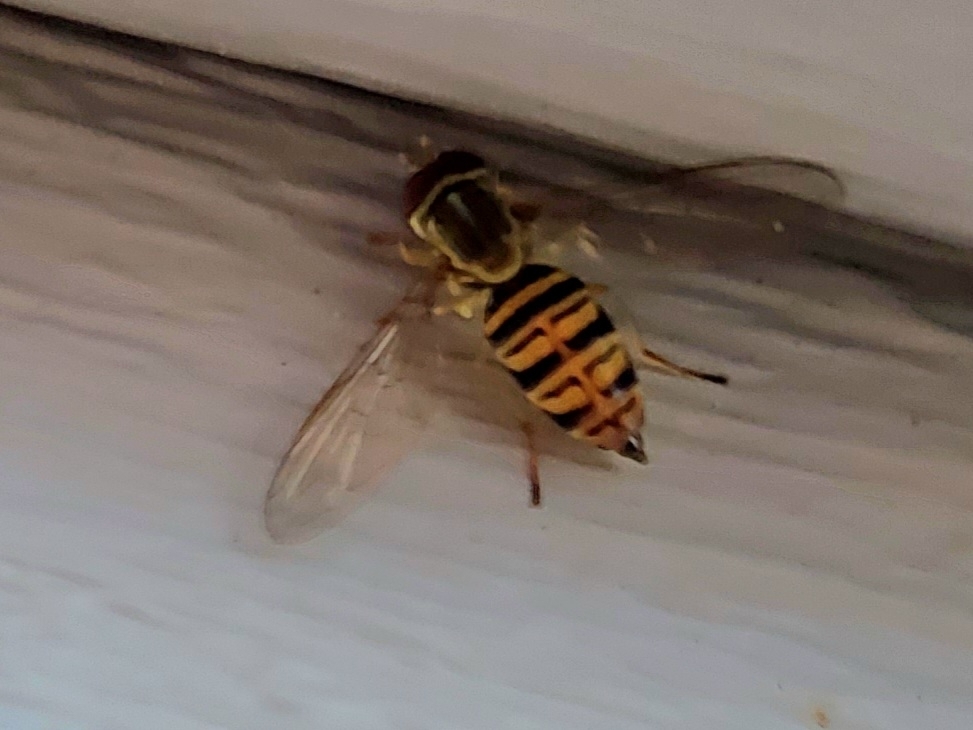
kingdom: Animalia
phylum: Arthropoda
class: Insecta
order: Diptera
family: Syrphidae
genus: Toxomerus
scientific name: Toxomerus politus
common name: Maize calligrapher
